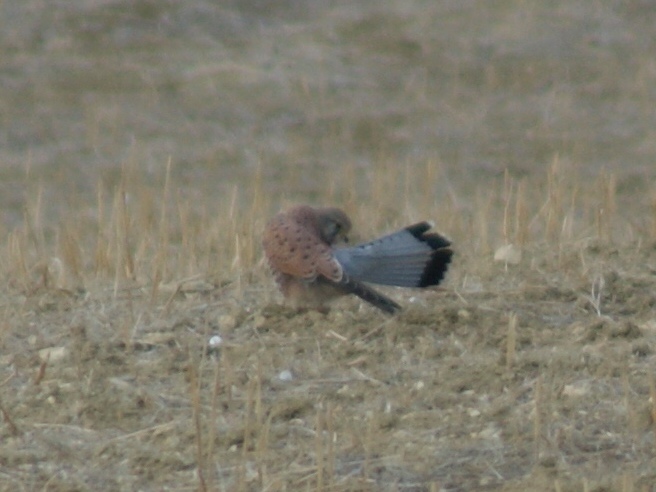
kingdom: Animalia
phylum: Chordata
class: Aves
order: Falconiformes
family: Falconidae
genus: Falco
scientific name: Falco tinnunculus
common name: Common kestrel
